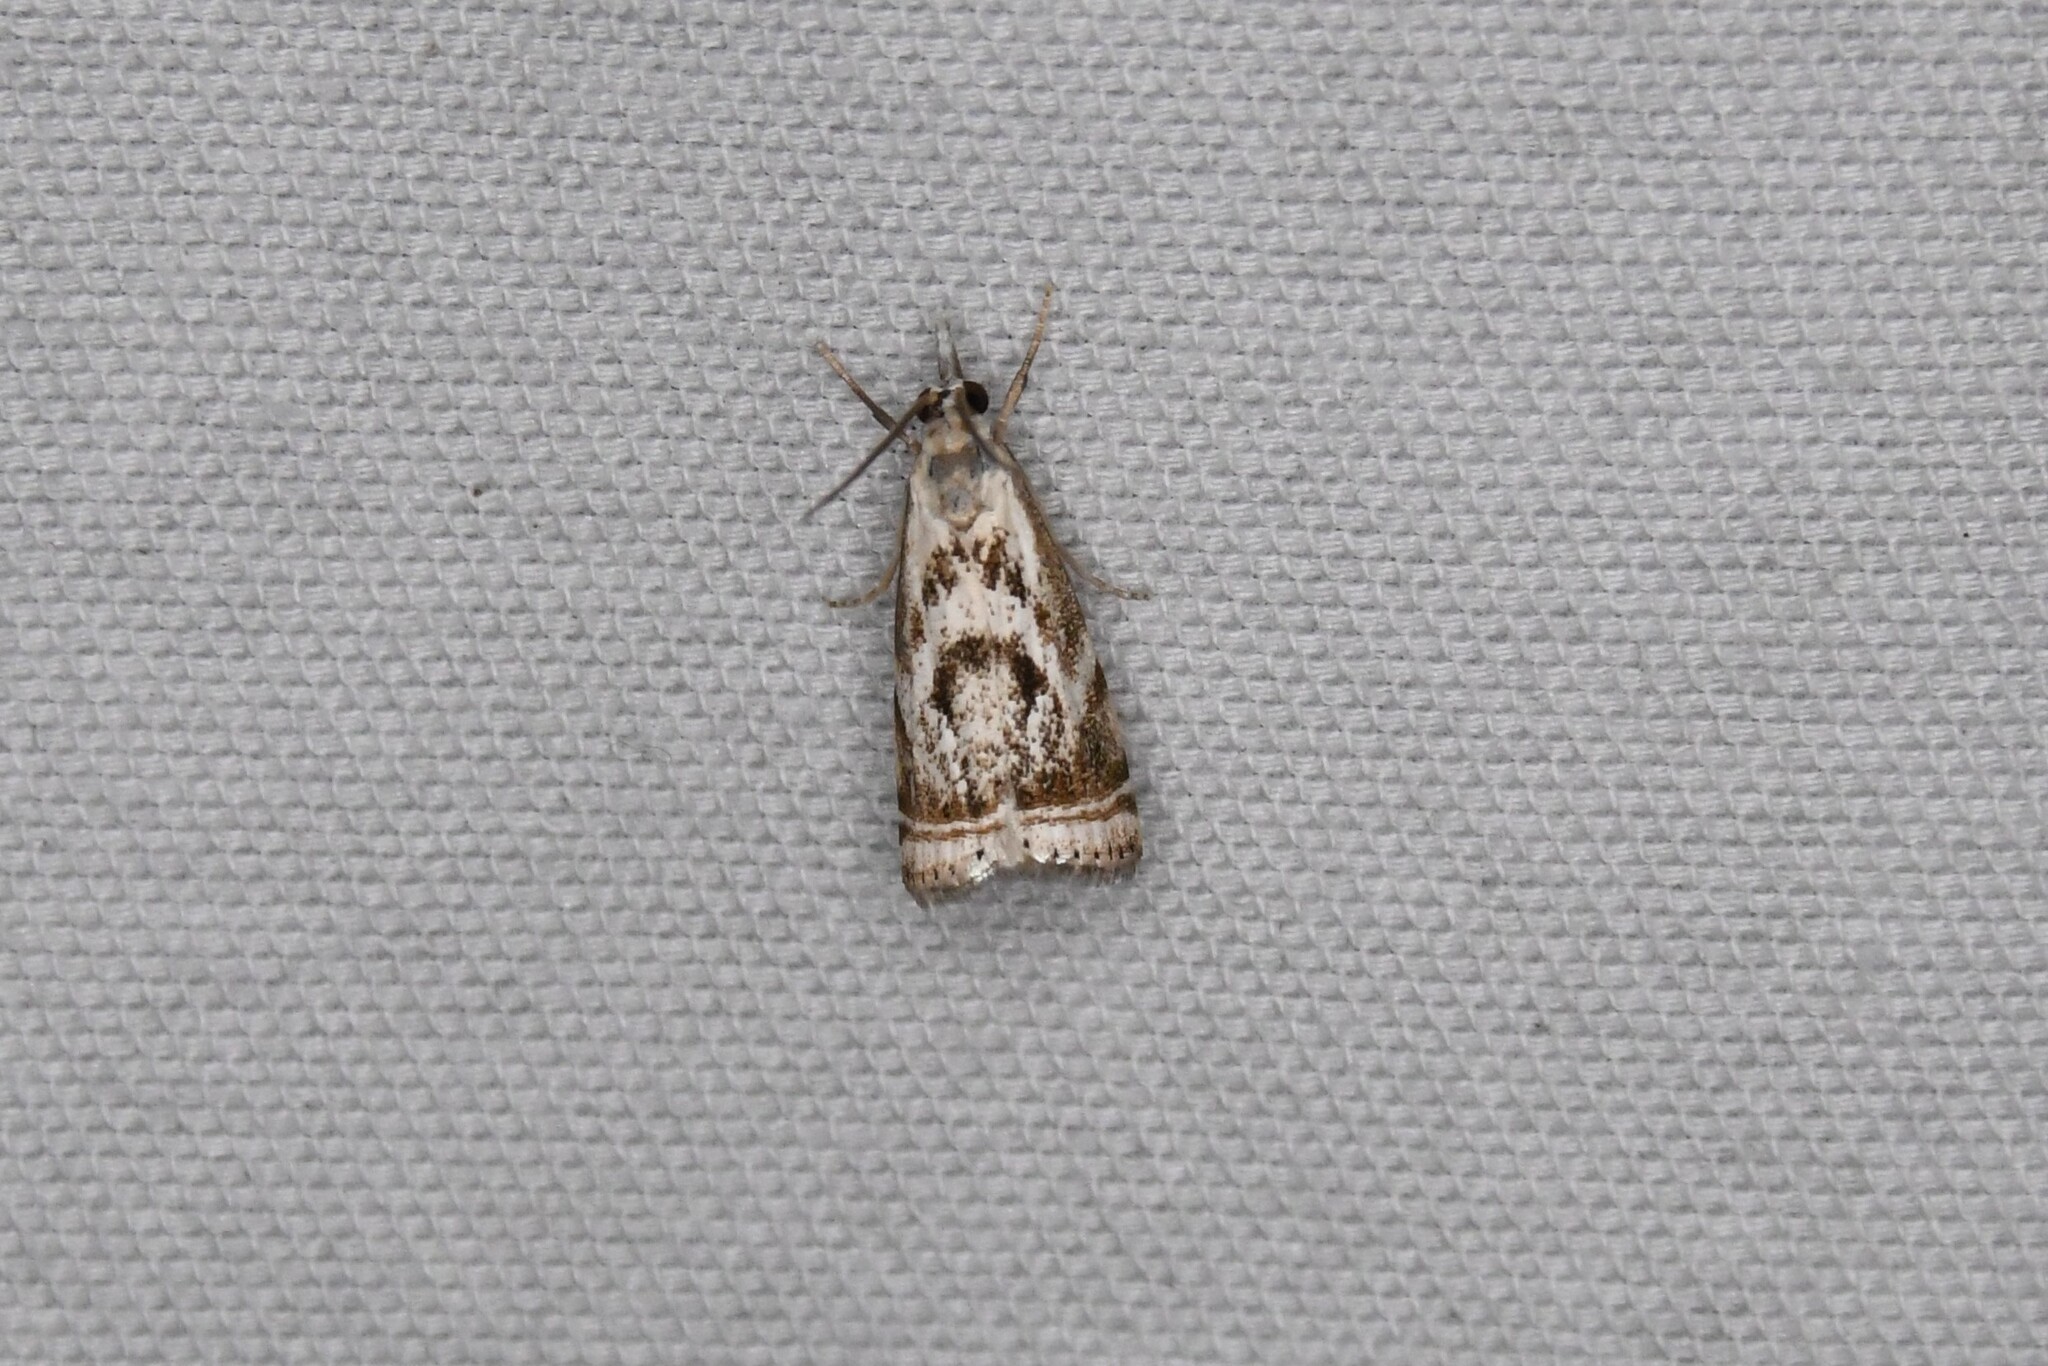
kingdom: Animalia
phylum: Arthropoda
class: Insecta
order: Lepidoptera
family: Crambidae
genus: Microcrambus
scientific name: Microcrambus elegans
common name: Elegant grass-veneer
